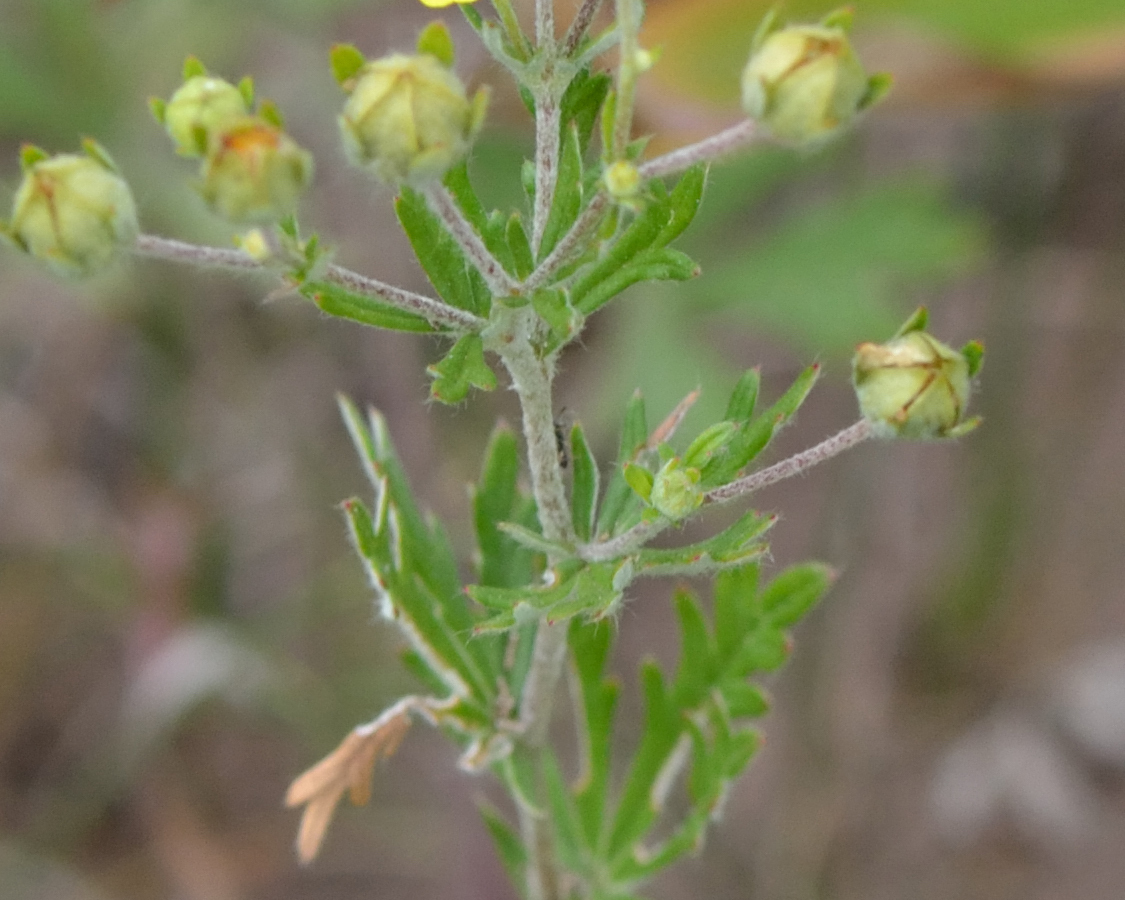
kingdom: Plantae
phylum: Tracheophyta
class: Magnoliopsida
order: Rosales
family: Rosaceae
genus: Potentilla
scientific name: Potentilla argentea
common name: Hoary cinquefoil
